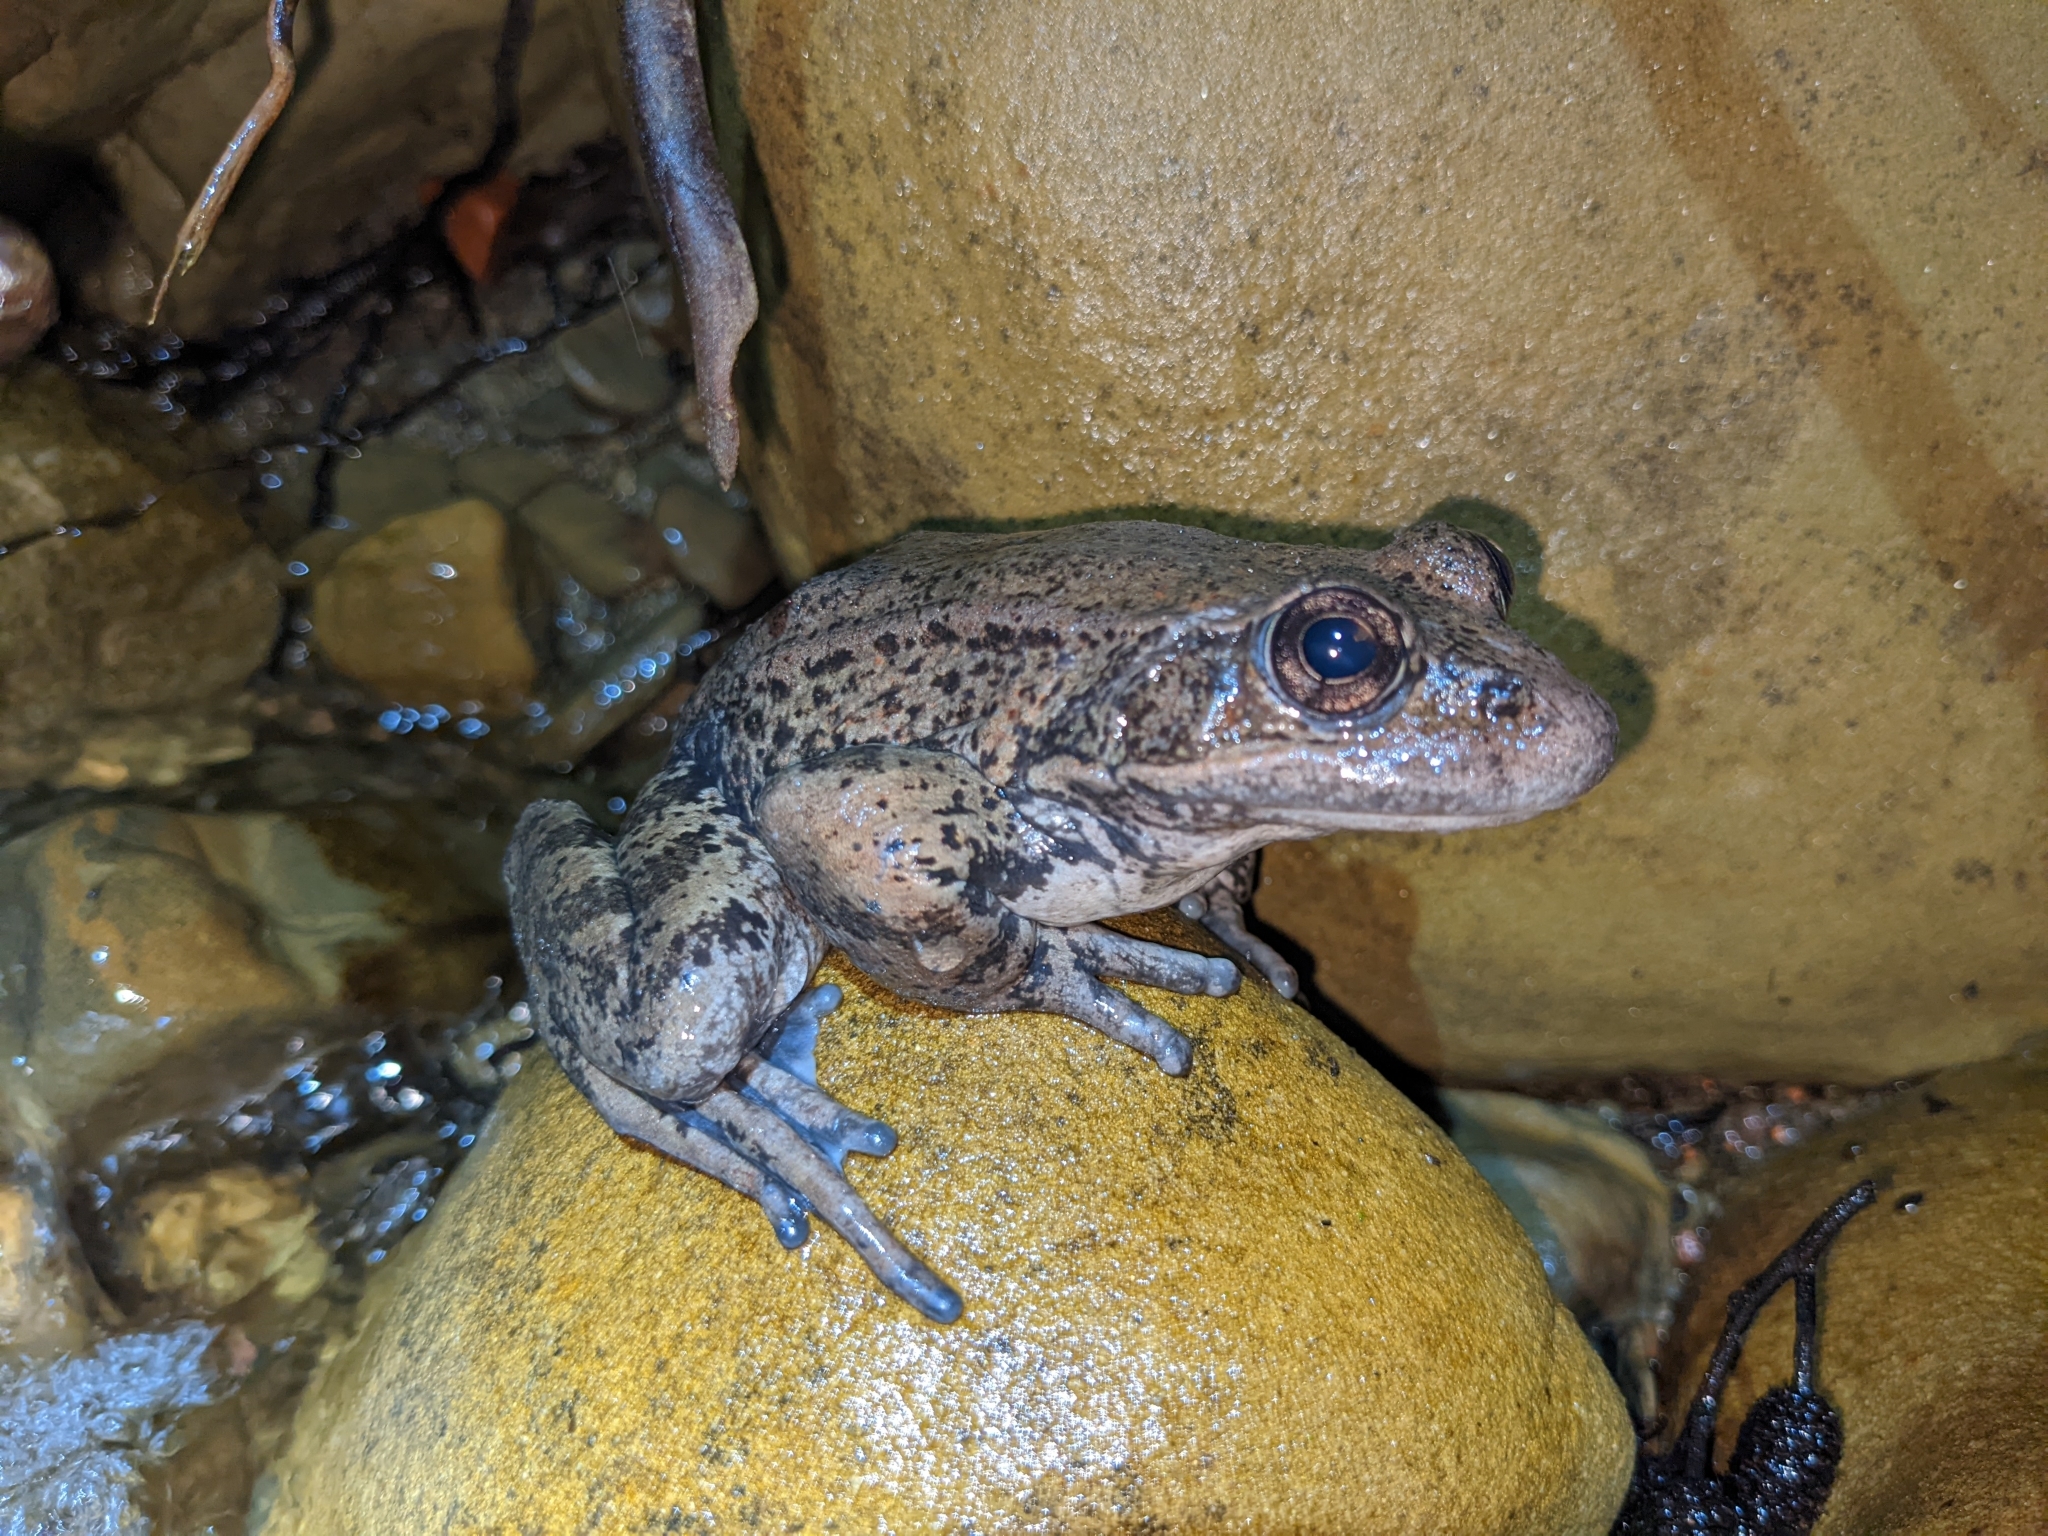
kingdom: Animalia
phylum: Chordata
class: Amphibia
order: Anura
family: Ranidae
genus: Rana
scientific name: Rana draytonii
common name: California red-legged frog
